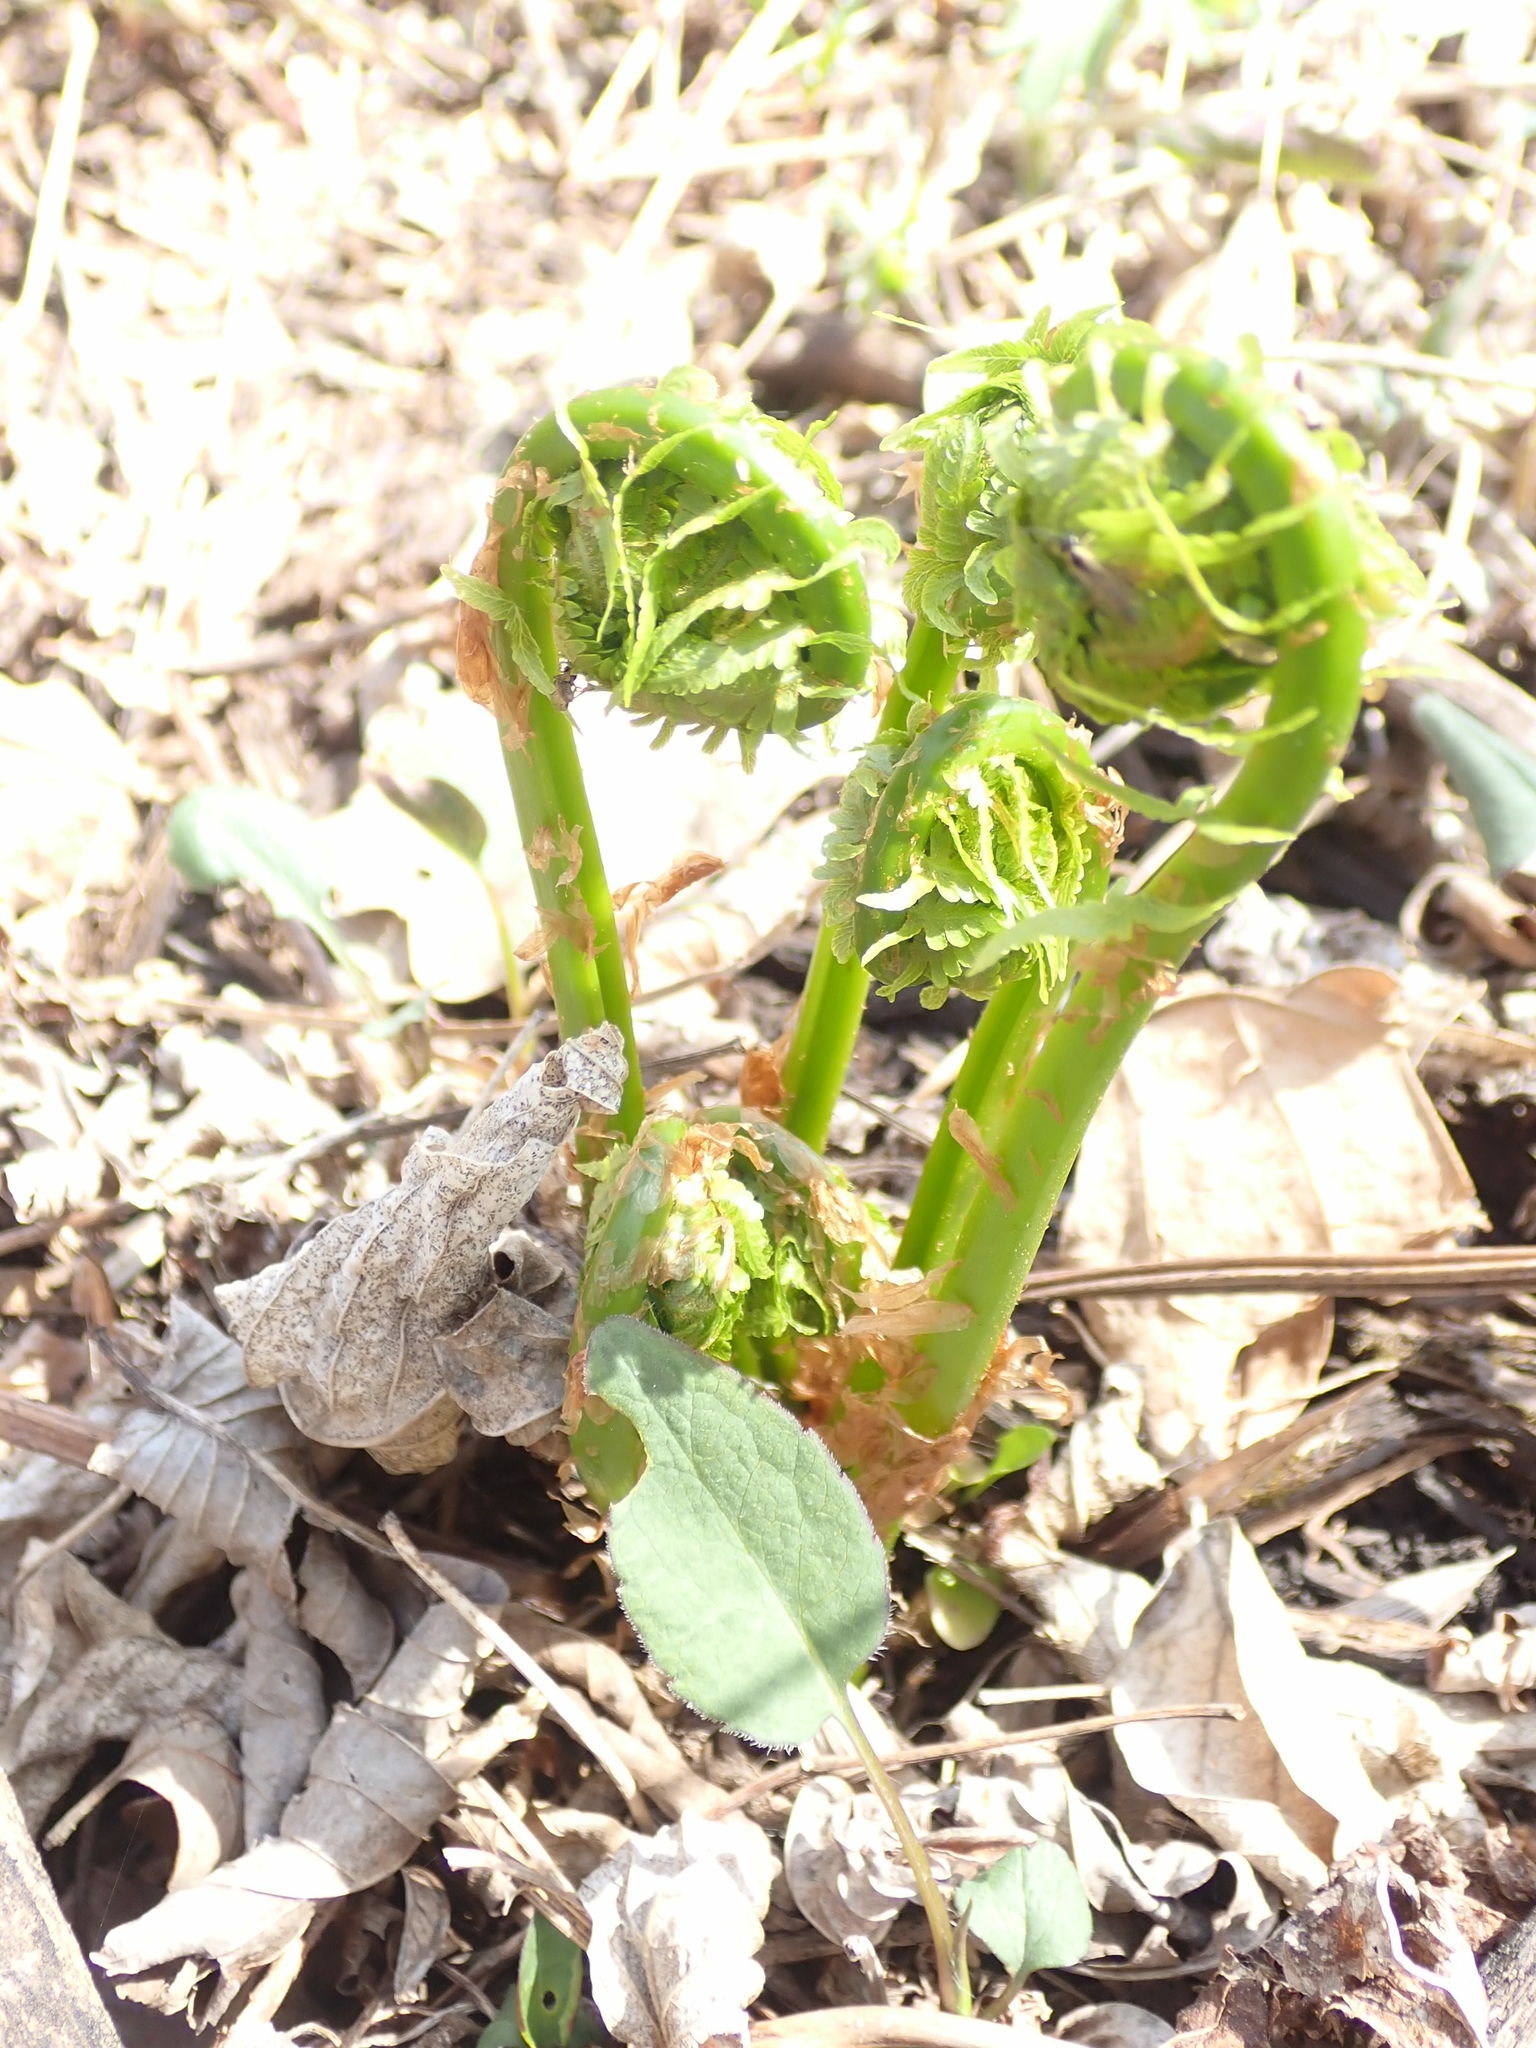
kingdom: Plantae
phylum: Tracheophyta
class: Polypodiopsida
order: Polypodiales
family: Onocleaceae
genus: Matteuccia
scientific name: Matteuccia struthiopteris
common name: Ostrich fern
